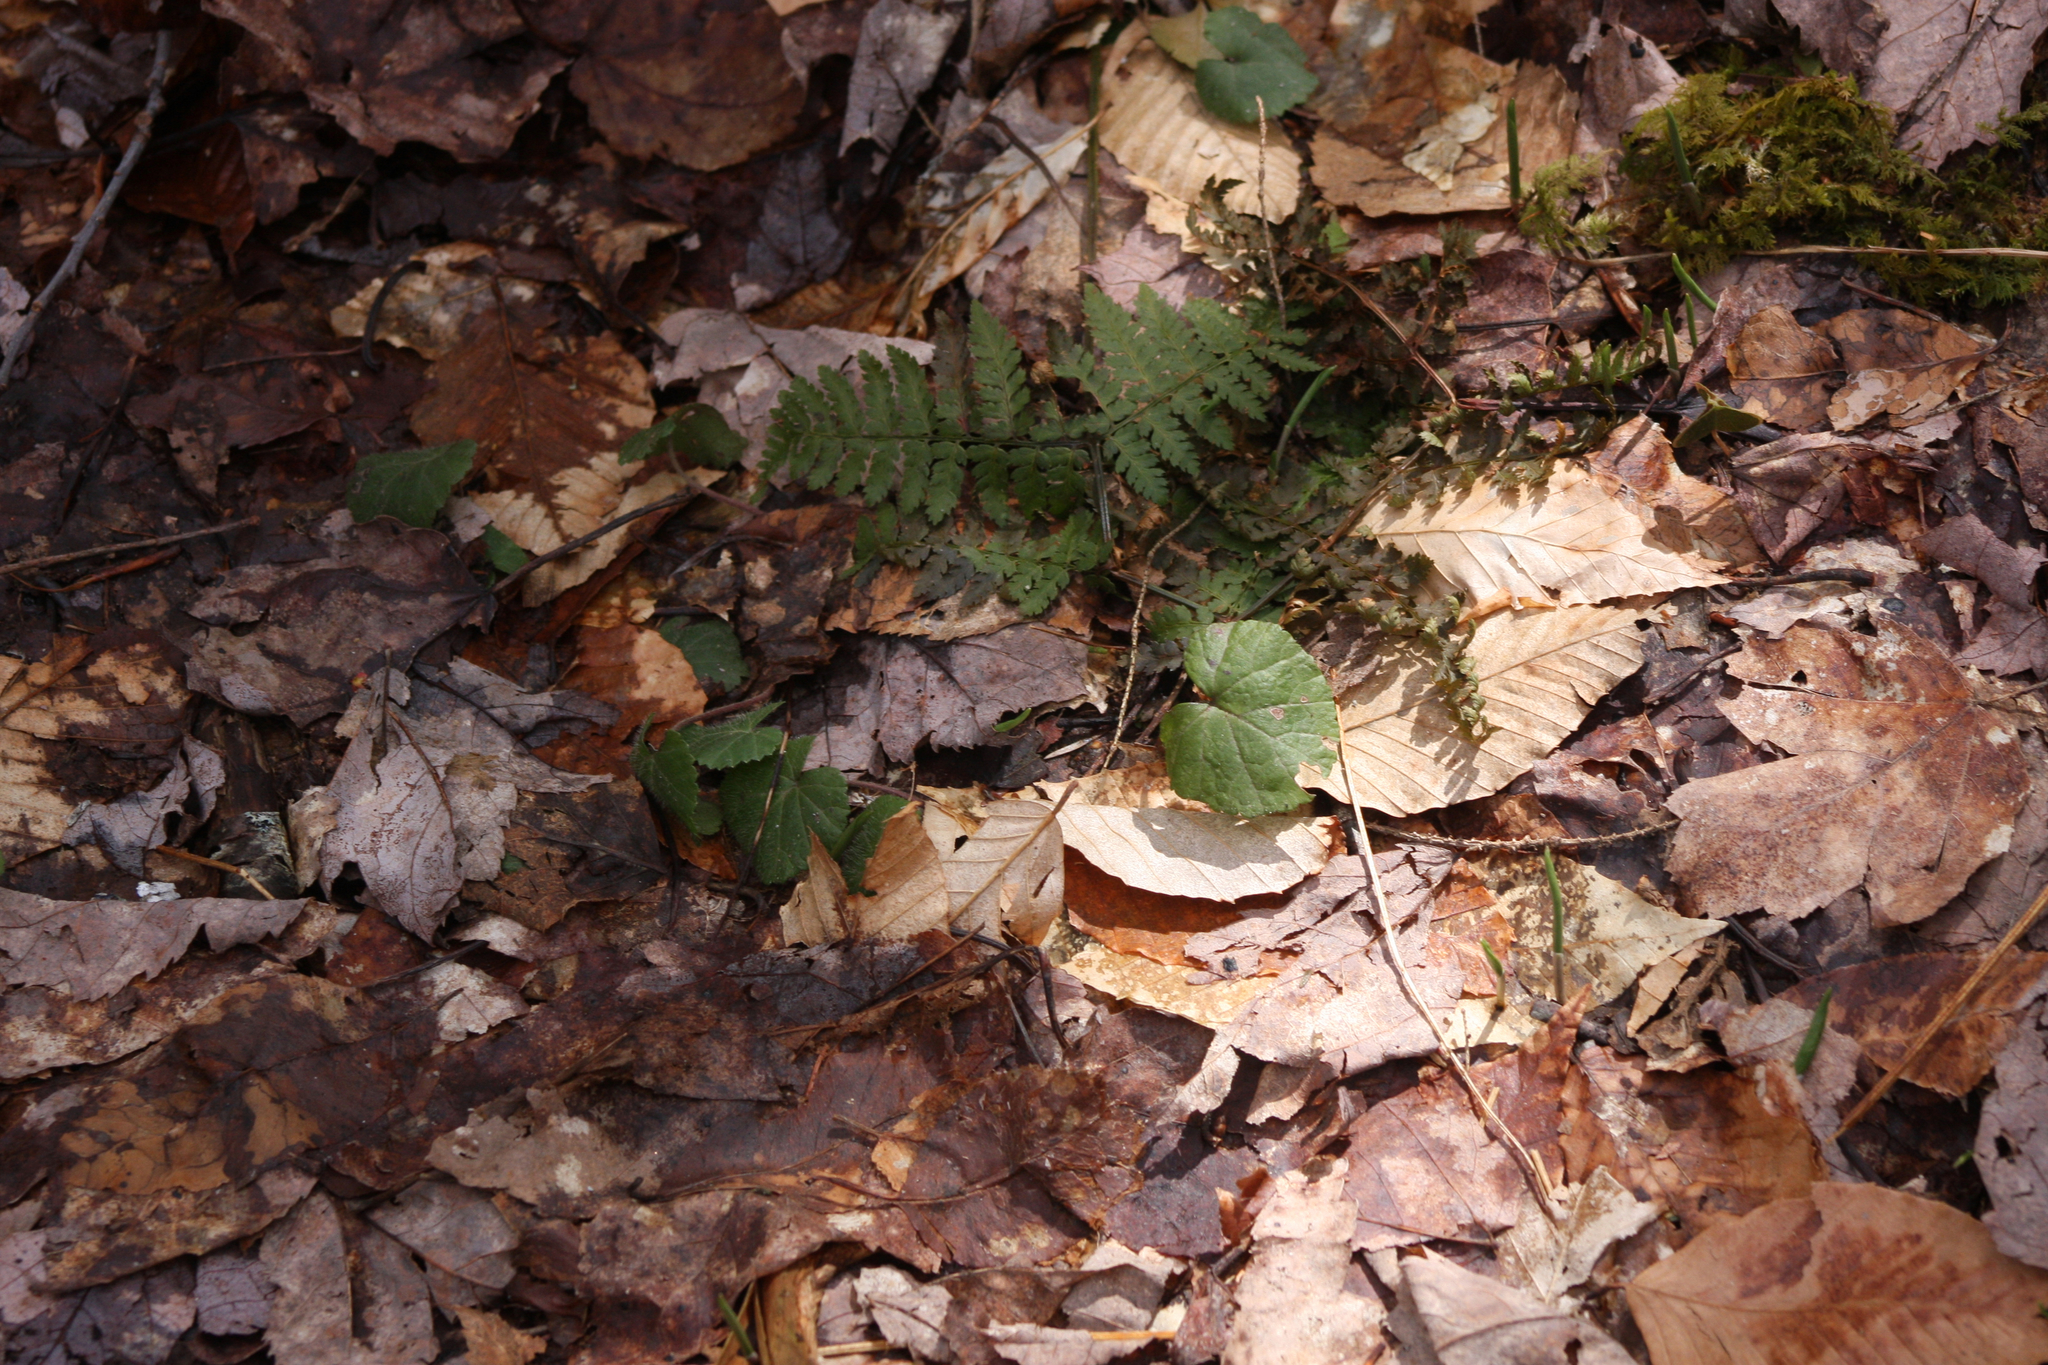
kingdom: Plantae
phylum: Tracheophyta
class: Magnoliopsida
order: Rosales
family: Rosaceae
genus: Dalibarda
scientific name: Dalibarda repens
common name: Dewdrop
